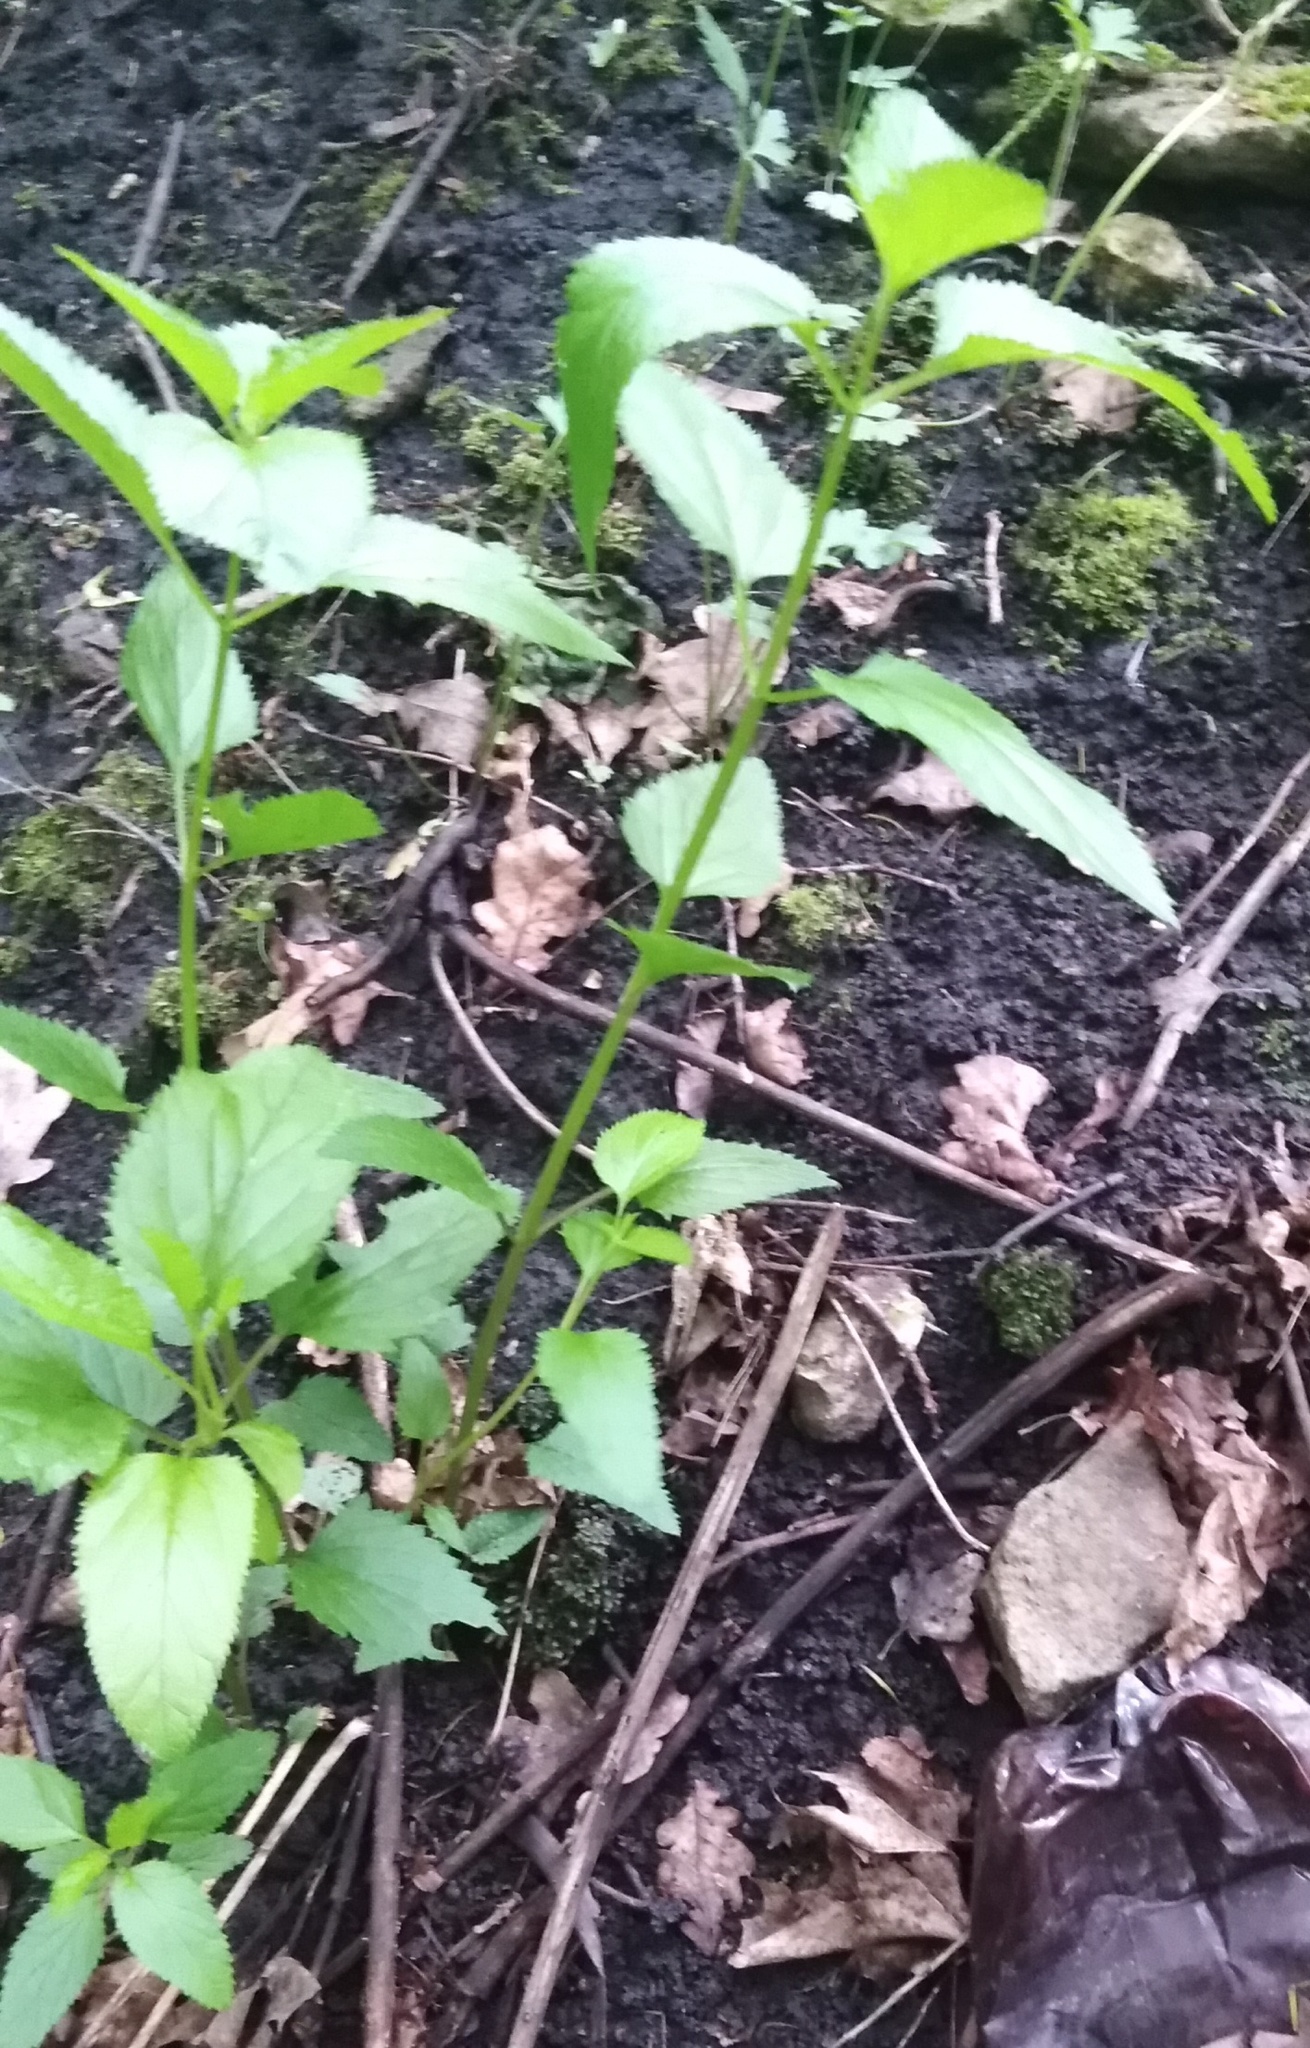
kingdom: Plantae
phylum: Tracheophyta
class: Magnoliopsida
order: Lamiales
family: Scrophulariaceae
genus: Scrophularia
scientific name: Scrophularia nodosa
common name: Common figwort
